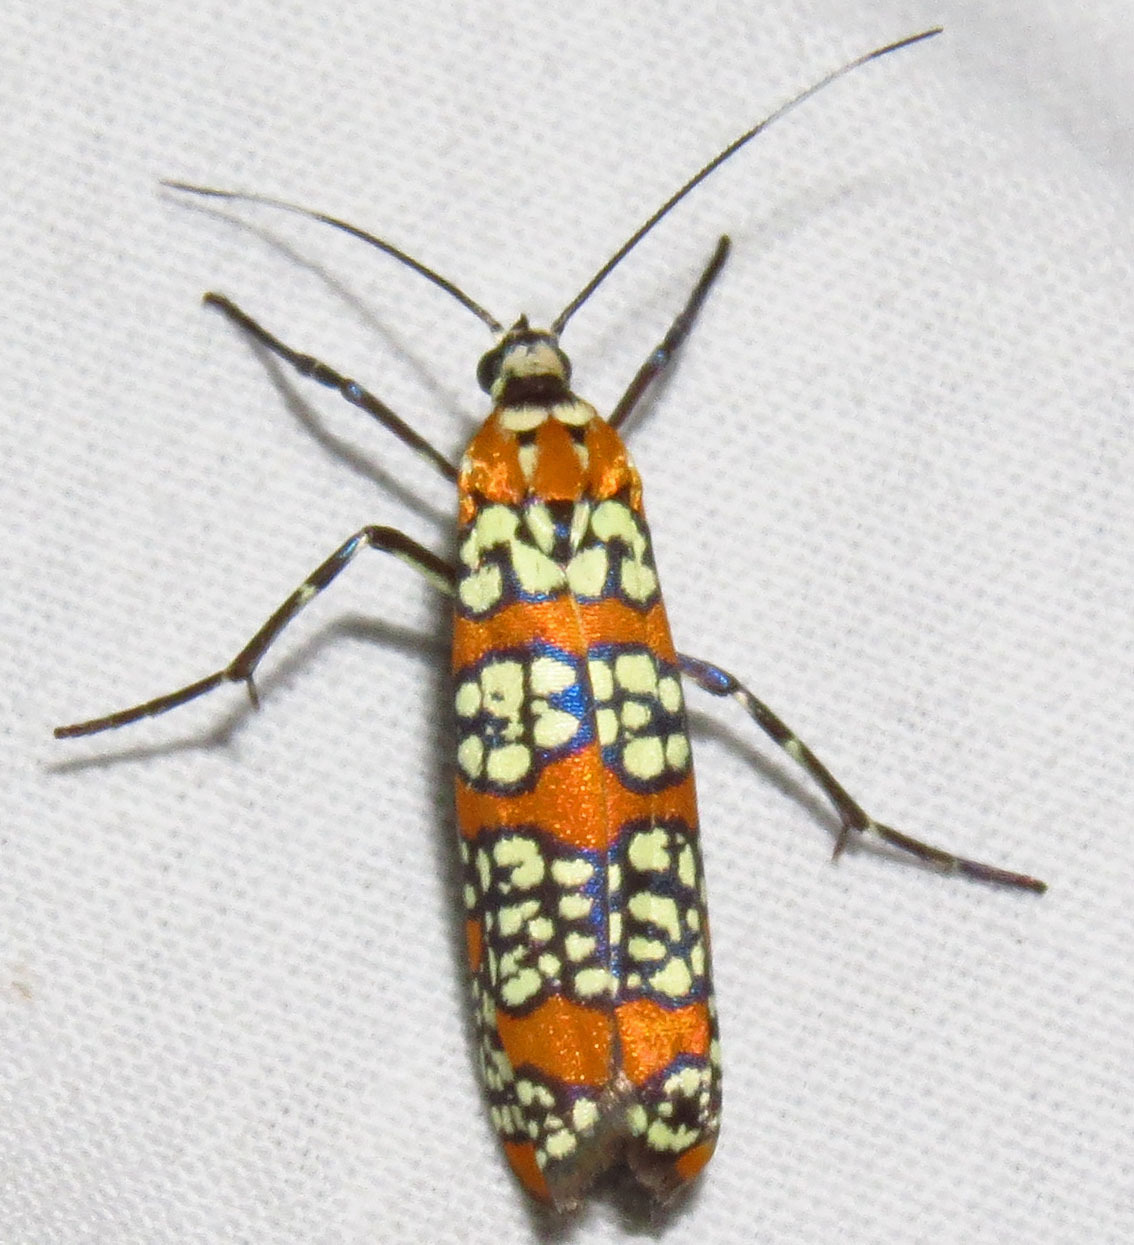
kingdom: Animalia
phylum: Arthropoda
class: Insecta
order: Lepidoptera
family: Attevidae
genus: Atteva
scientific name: Atteva punctella
